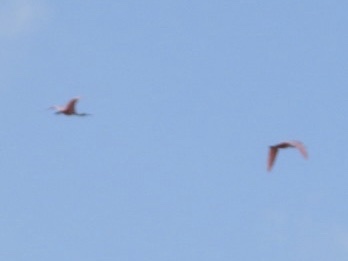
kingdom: Animalia
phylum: Chordata
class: Aves
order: Pelecaniformes
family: Threskiornithidae
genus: Platalea
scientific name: Platalea ajaja
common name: Roseate spoonbill
